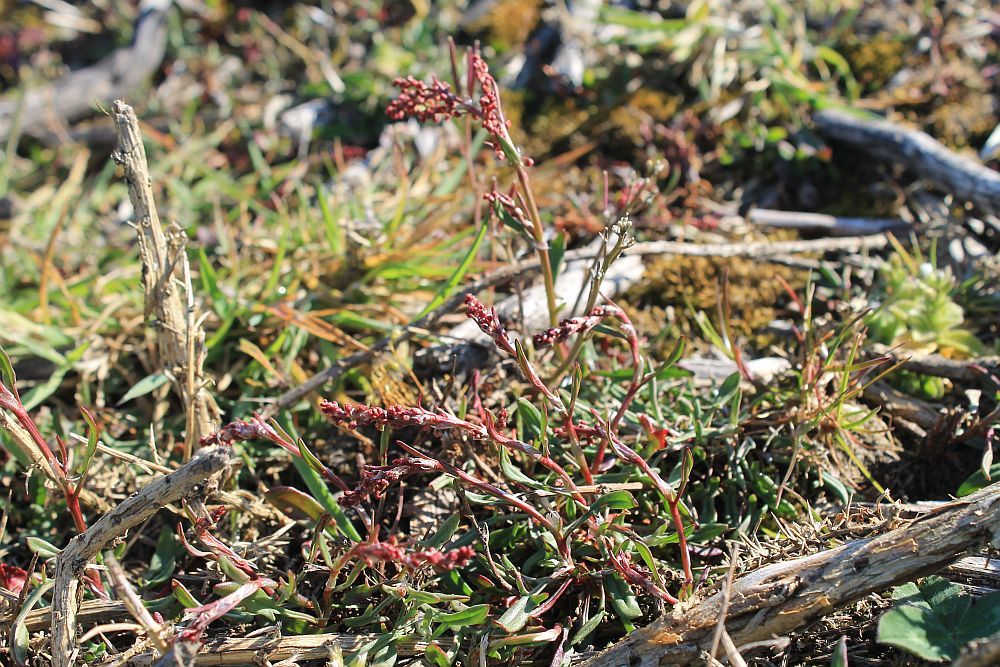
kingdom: Plantae
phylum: Tracheophyta
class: Magnoliopsida
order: Caryophyllales
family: Polygonaceae
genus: Rumex
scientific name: Rumex acetosella
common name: Common sheep sorrel
